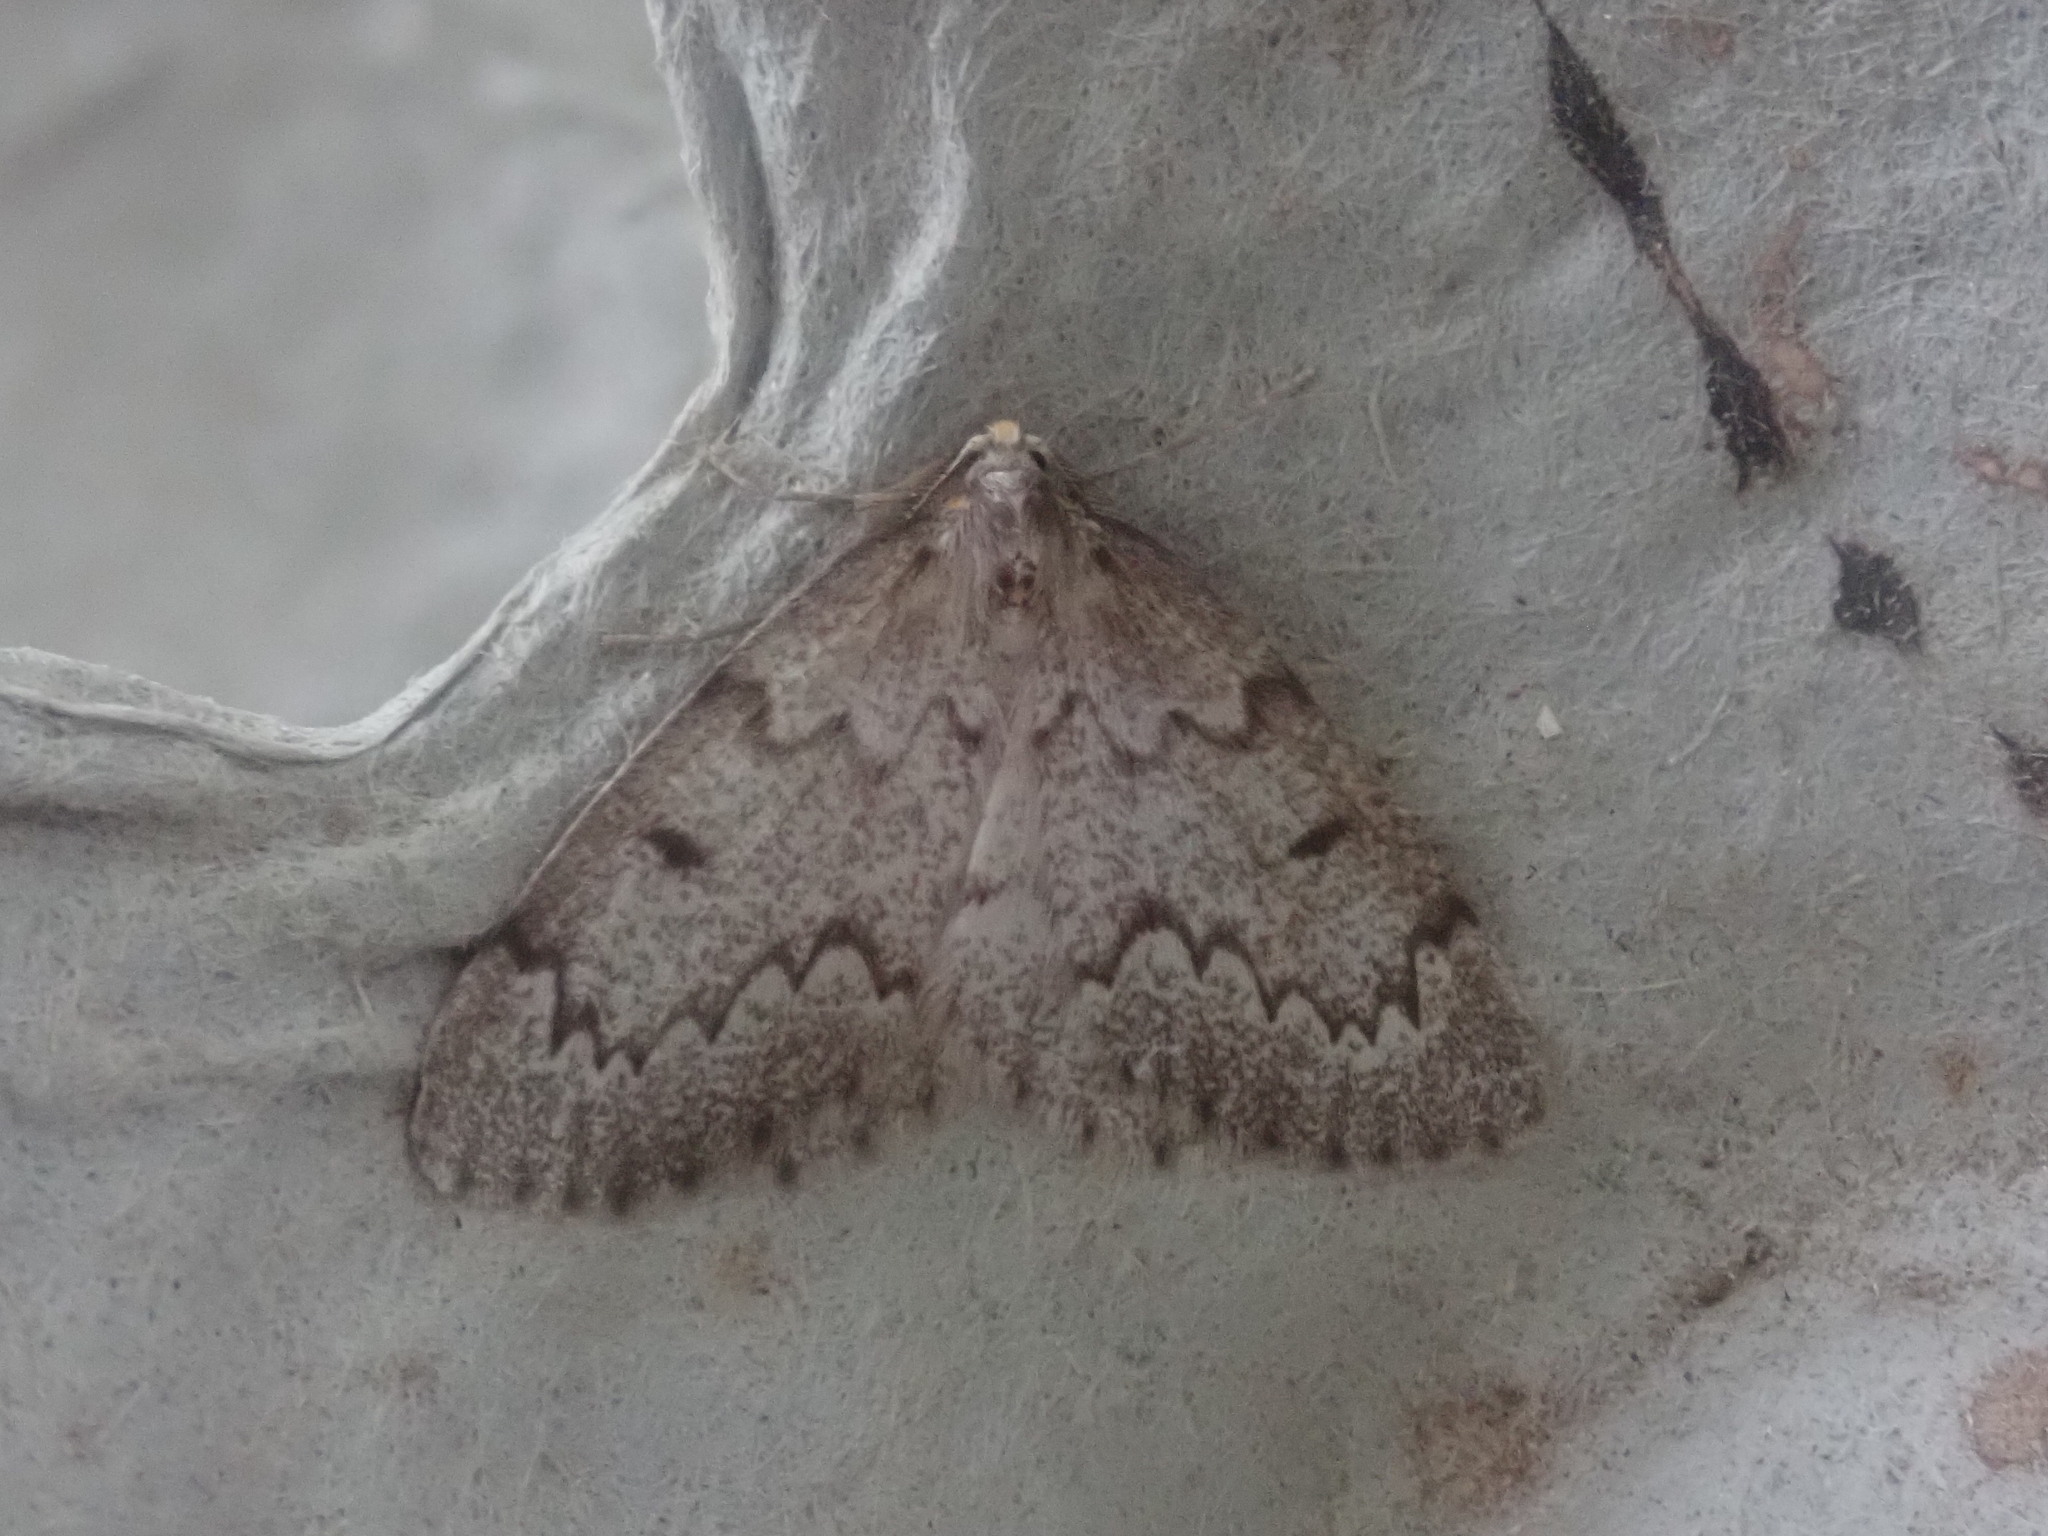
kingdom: Animalia
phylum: Arthropoda
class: Insecta
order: Lepidoptera
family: Geometridae
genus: Nepytia
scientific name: Nepytia canosaria
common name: False hemlock looper
